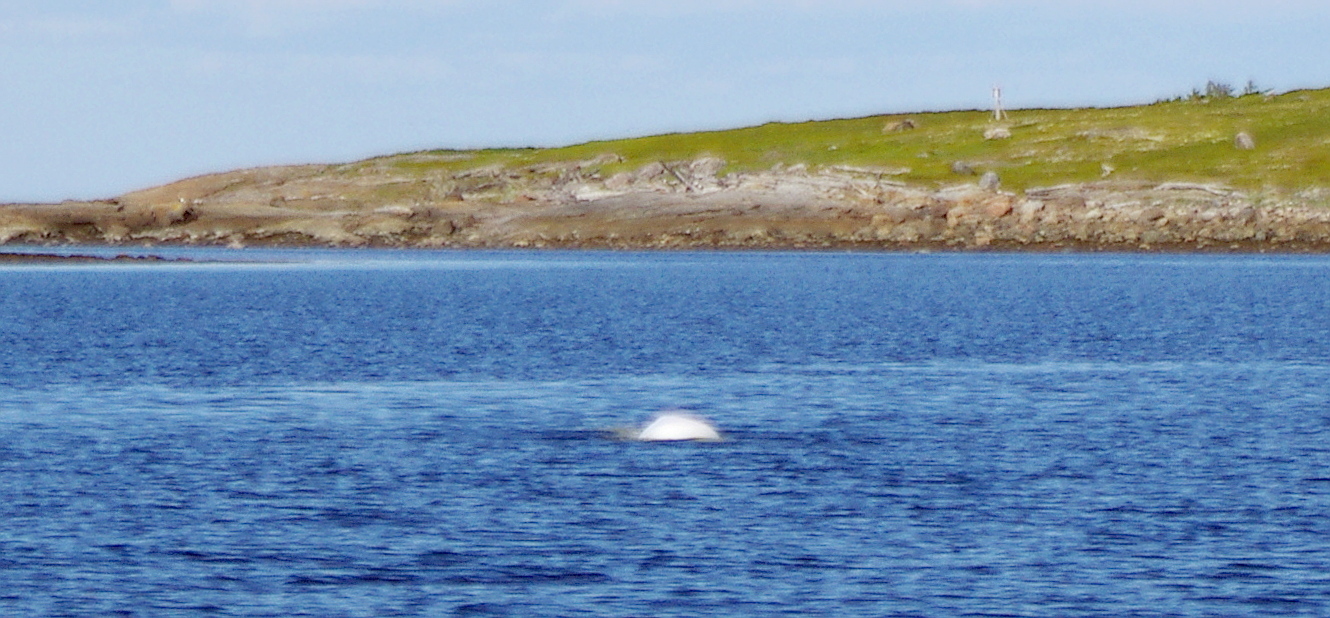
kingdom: Animalia
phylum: Chordata
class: Mammalia
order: Cetacea
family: Monodontidae
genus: Delphinapterus
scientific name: Delphinapterus leucas
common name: Beluga
